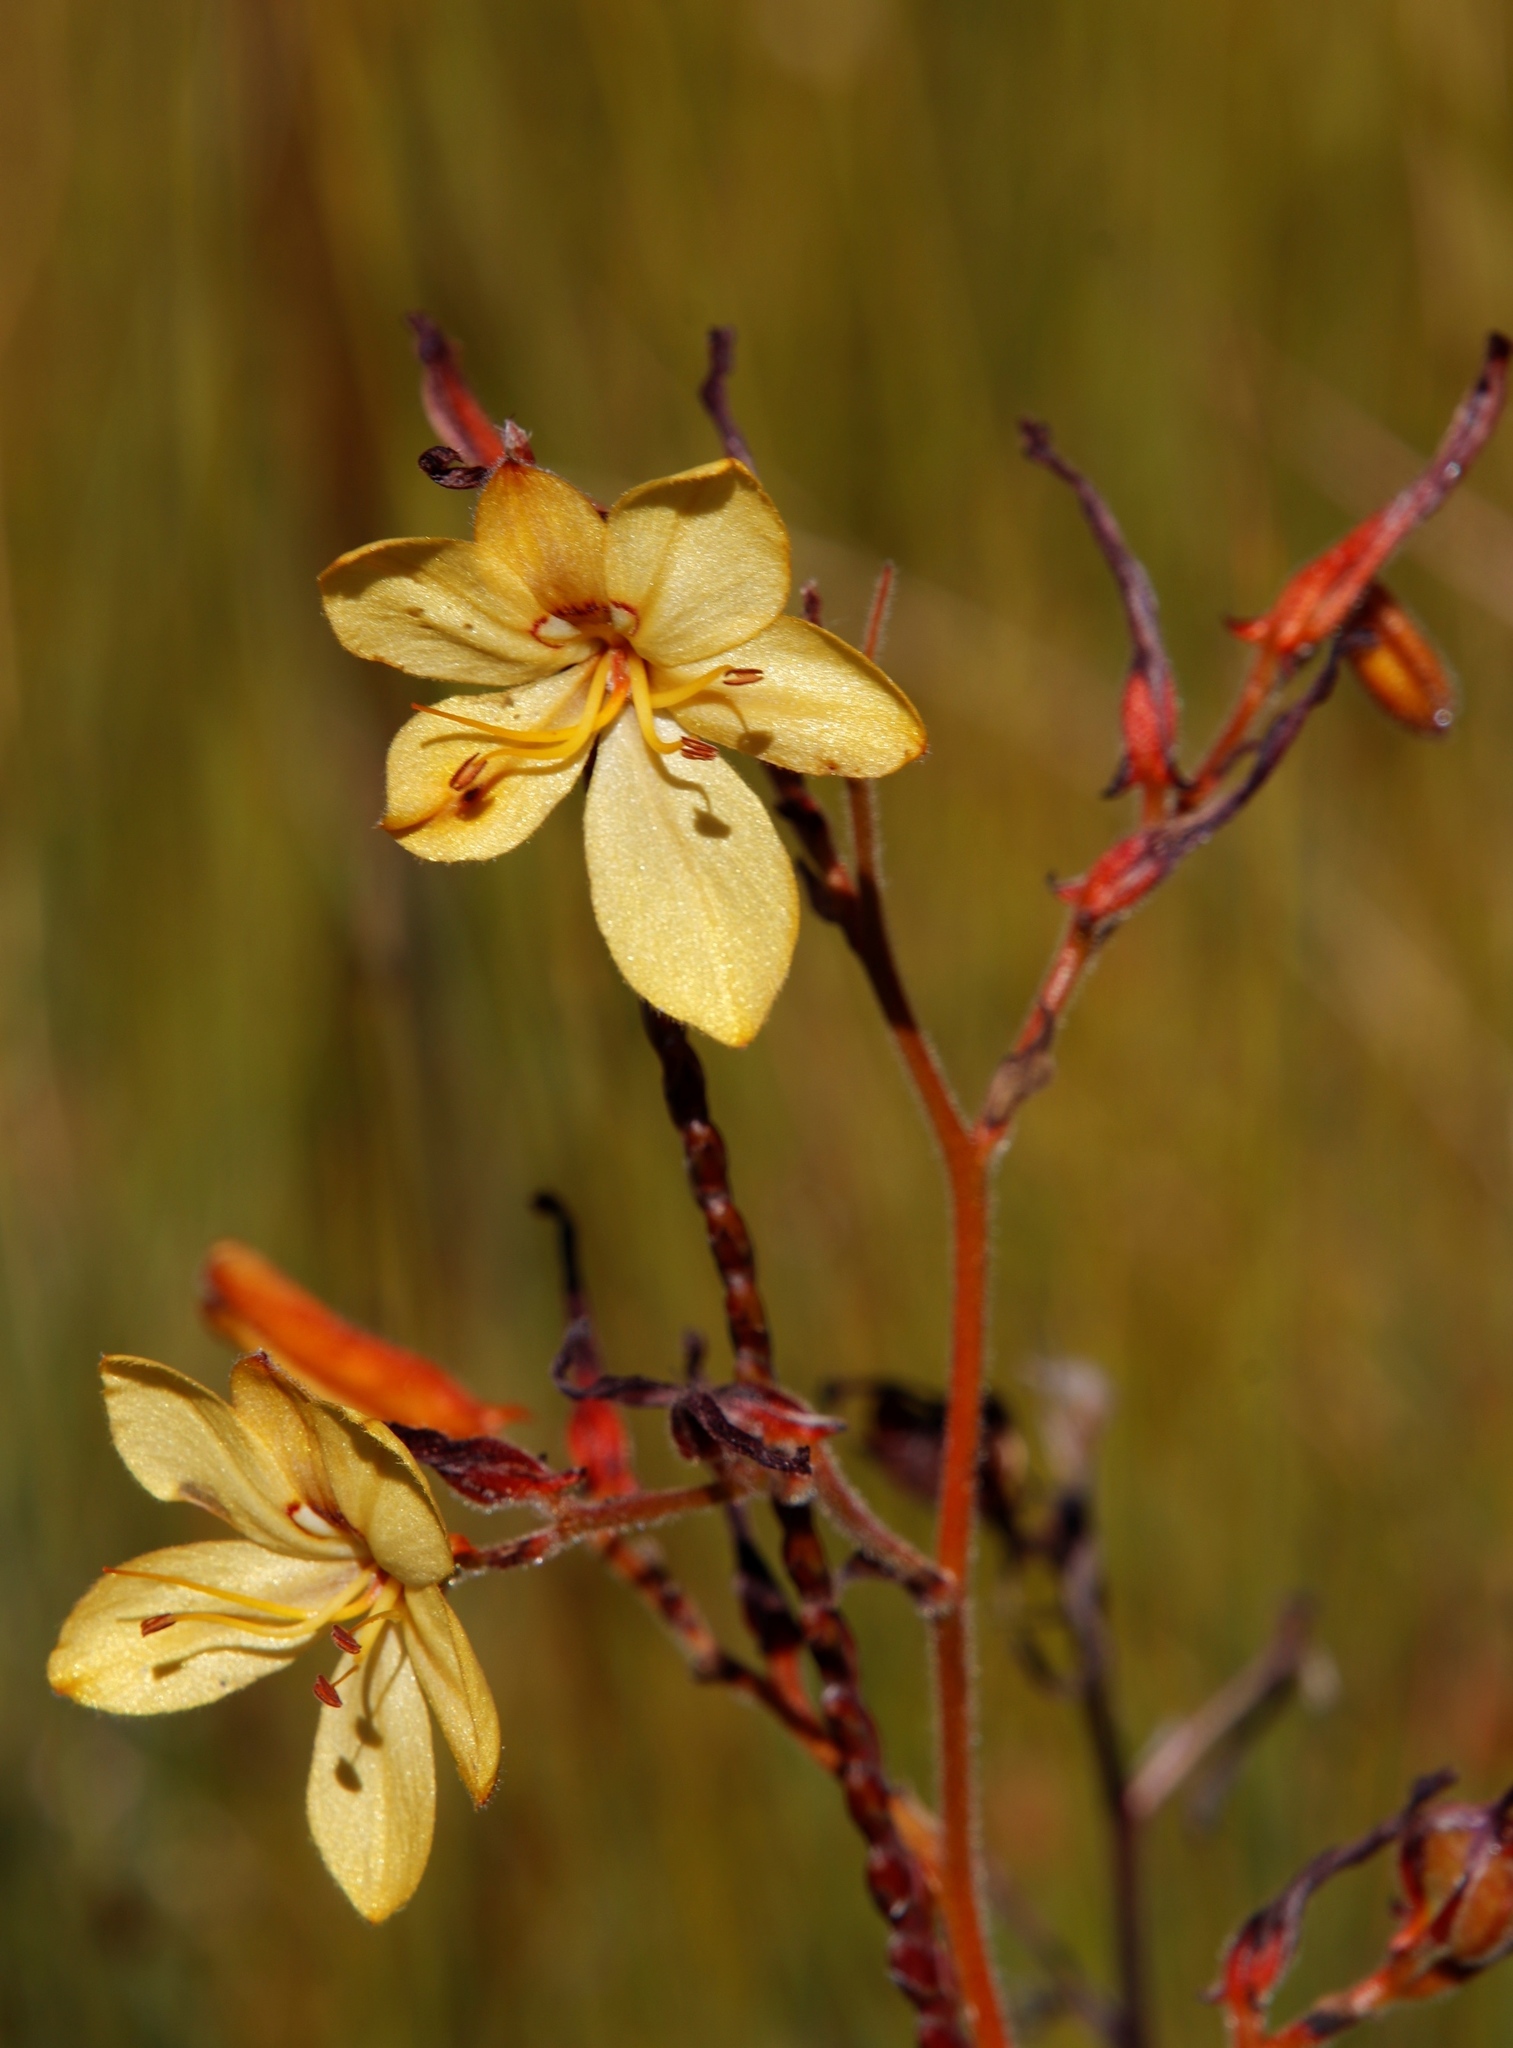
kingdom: Plantae
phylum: Tracheophyta
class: Liliopsida
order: Commelinales
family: Haemodoraceae
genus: Wachendorfia
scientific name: Wachendorfia paniculata
